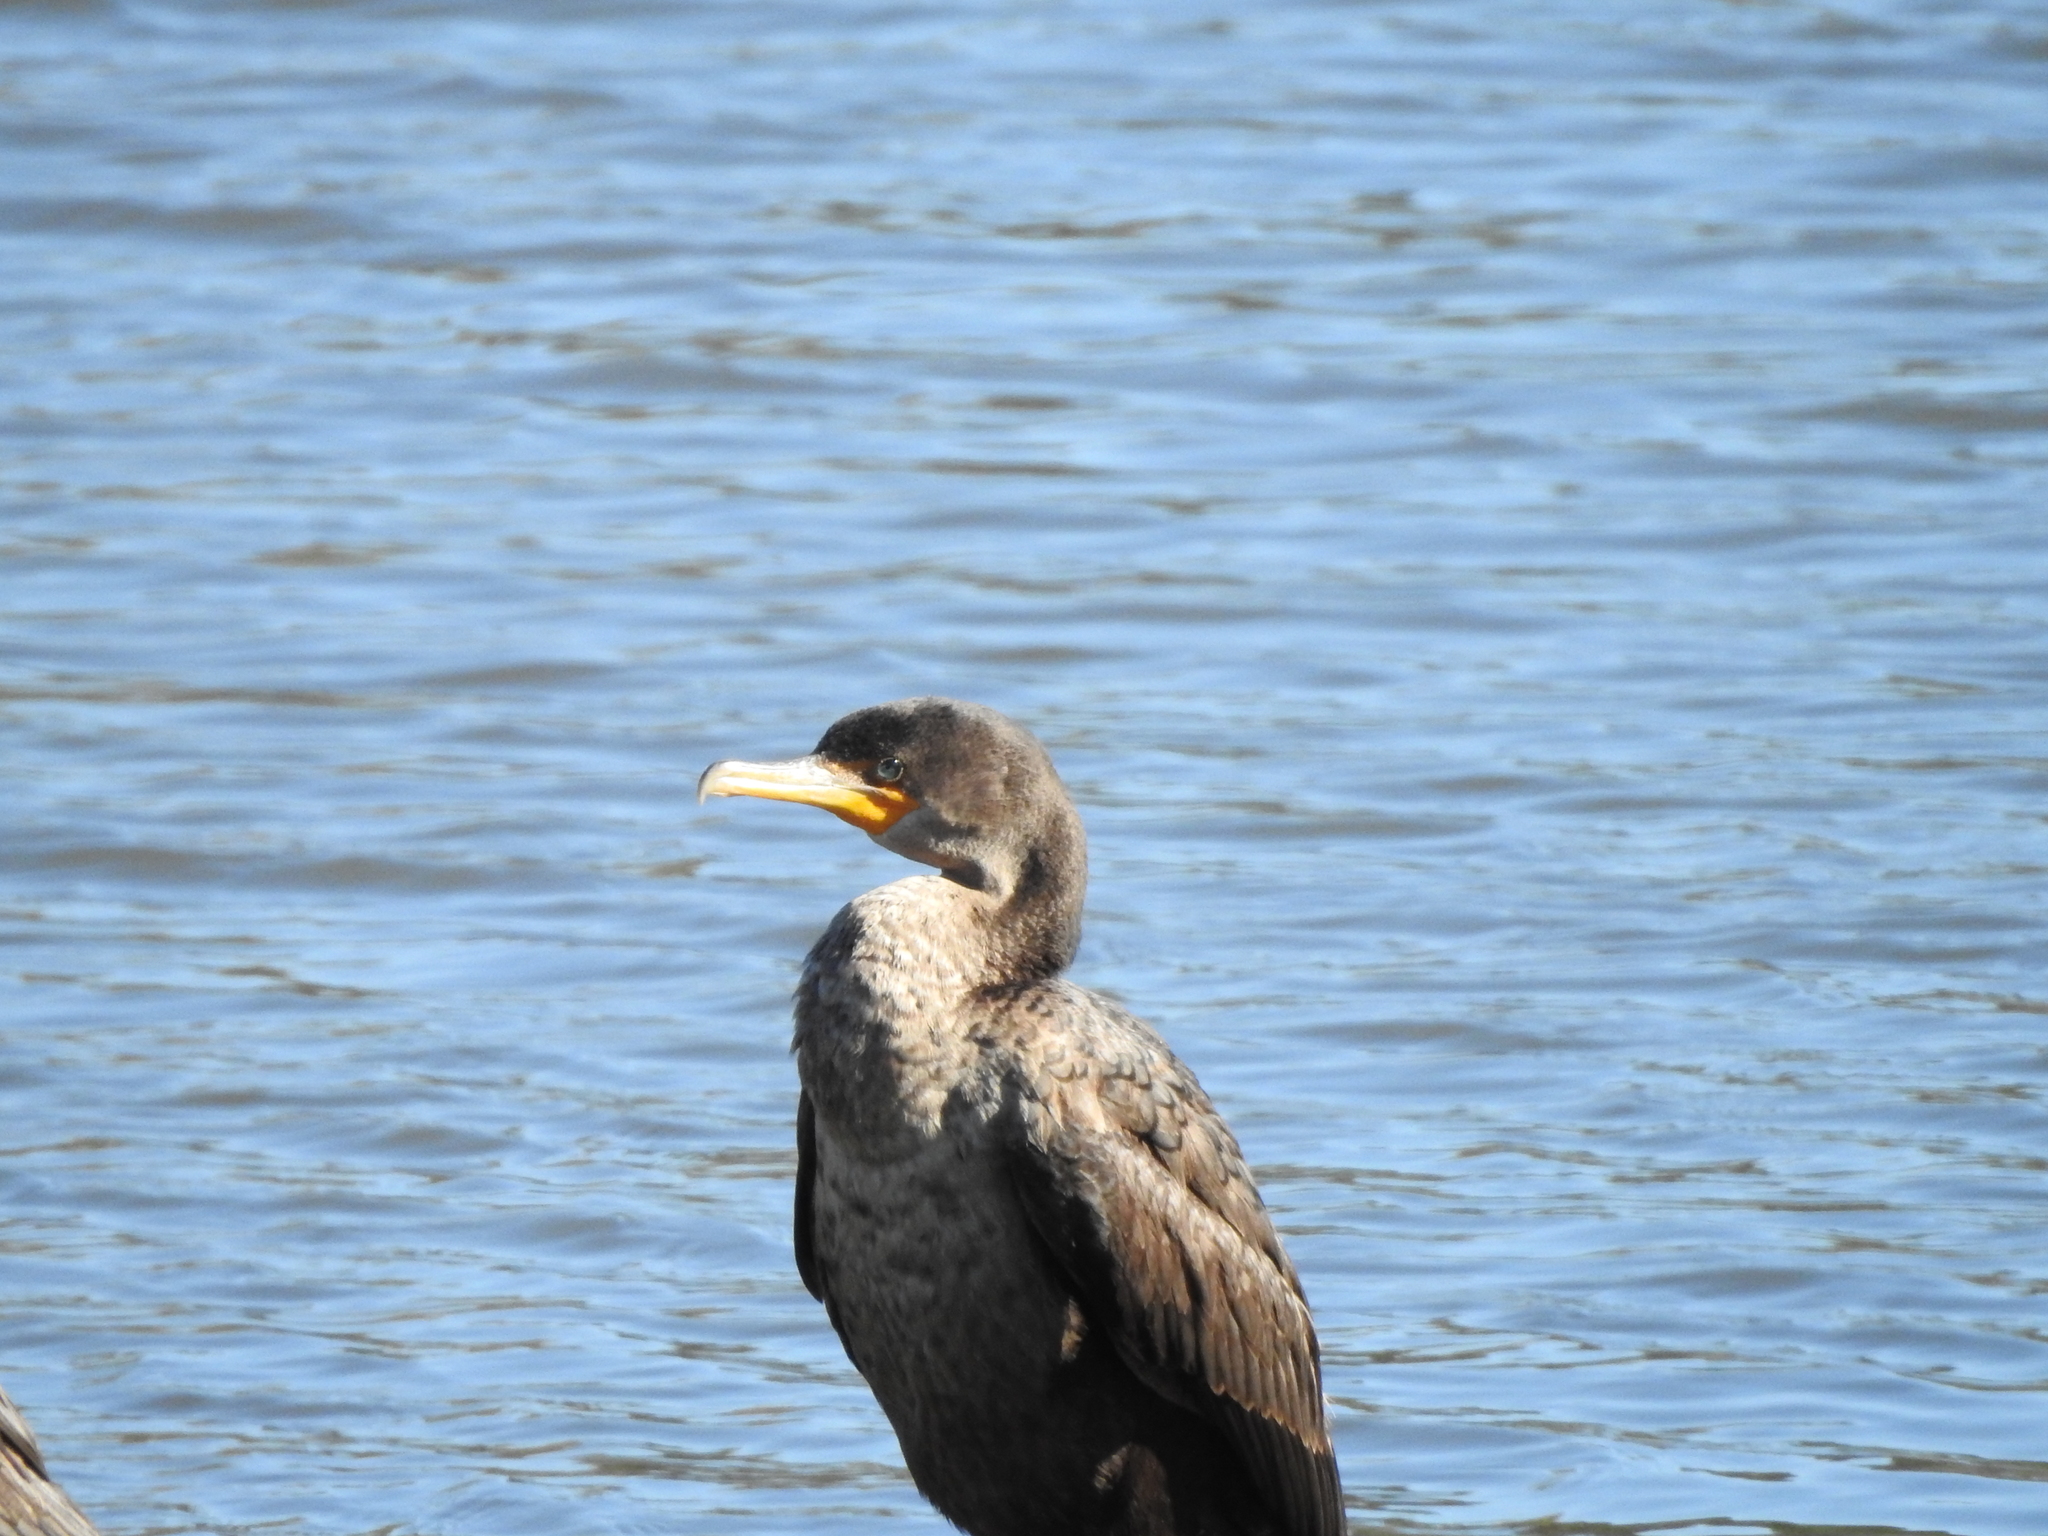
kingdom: Animalia
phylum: Chordata
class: Aves
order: Suliformes
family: Phalacrocoracidae
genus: Phalacrocorax
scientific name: Phalacrocorax auritus
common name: Double-crested cormorant
